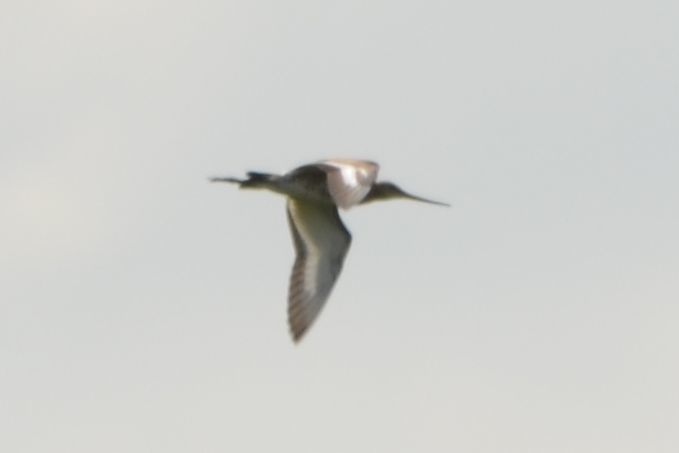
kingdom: Animalia
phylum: Chordata
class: Aves
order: Charadriiformes
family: Scolopacidae
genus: Limosa
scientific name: Limosa limosa
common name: Black-tailed godwit
